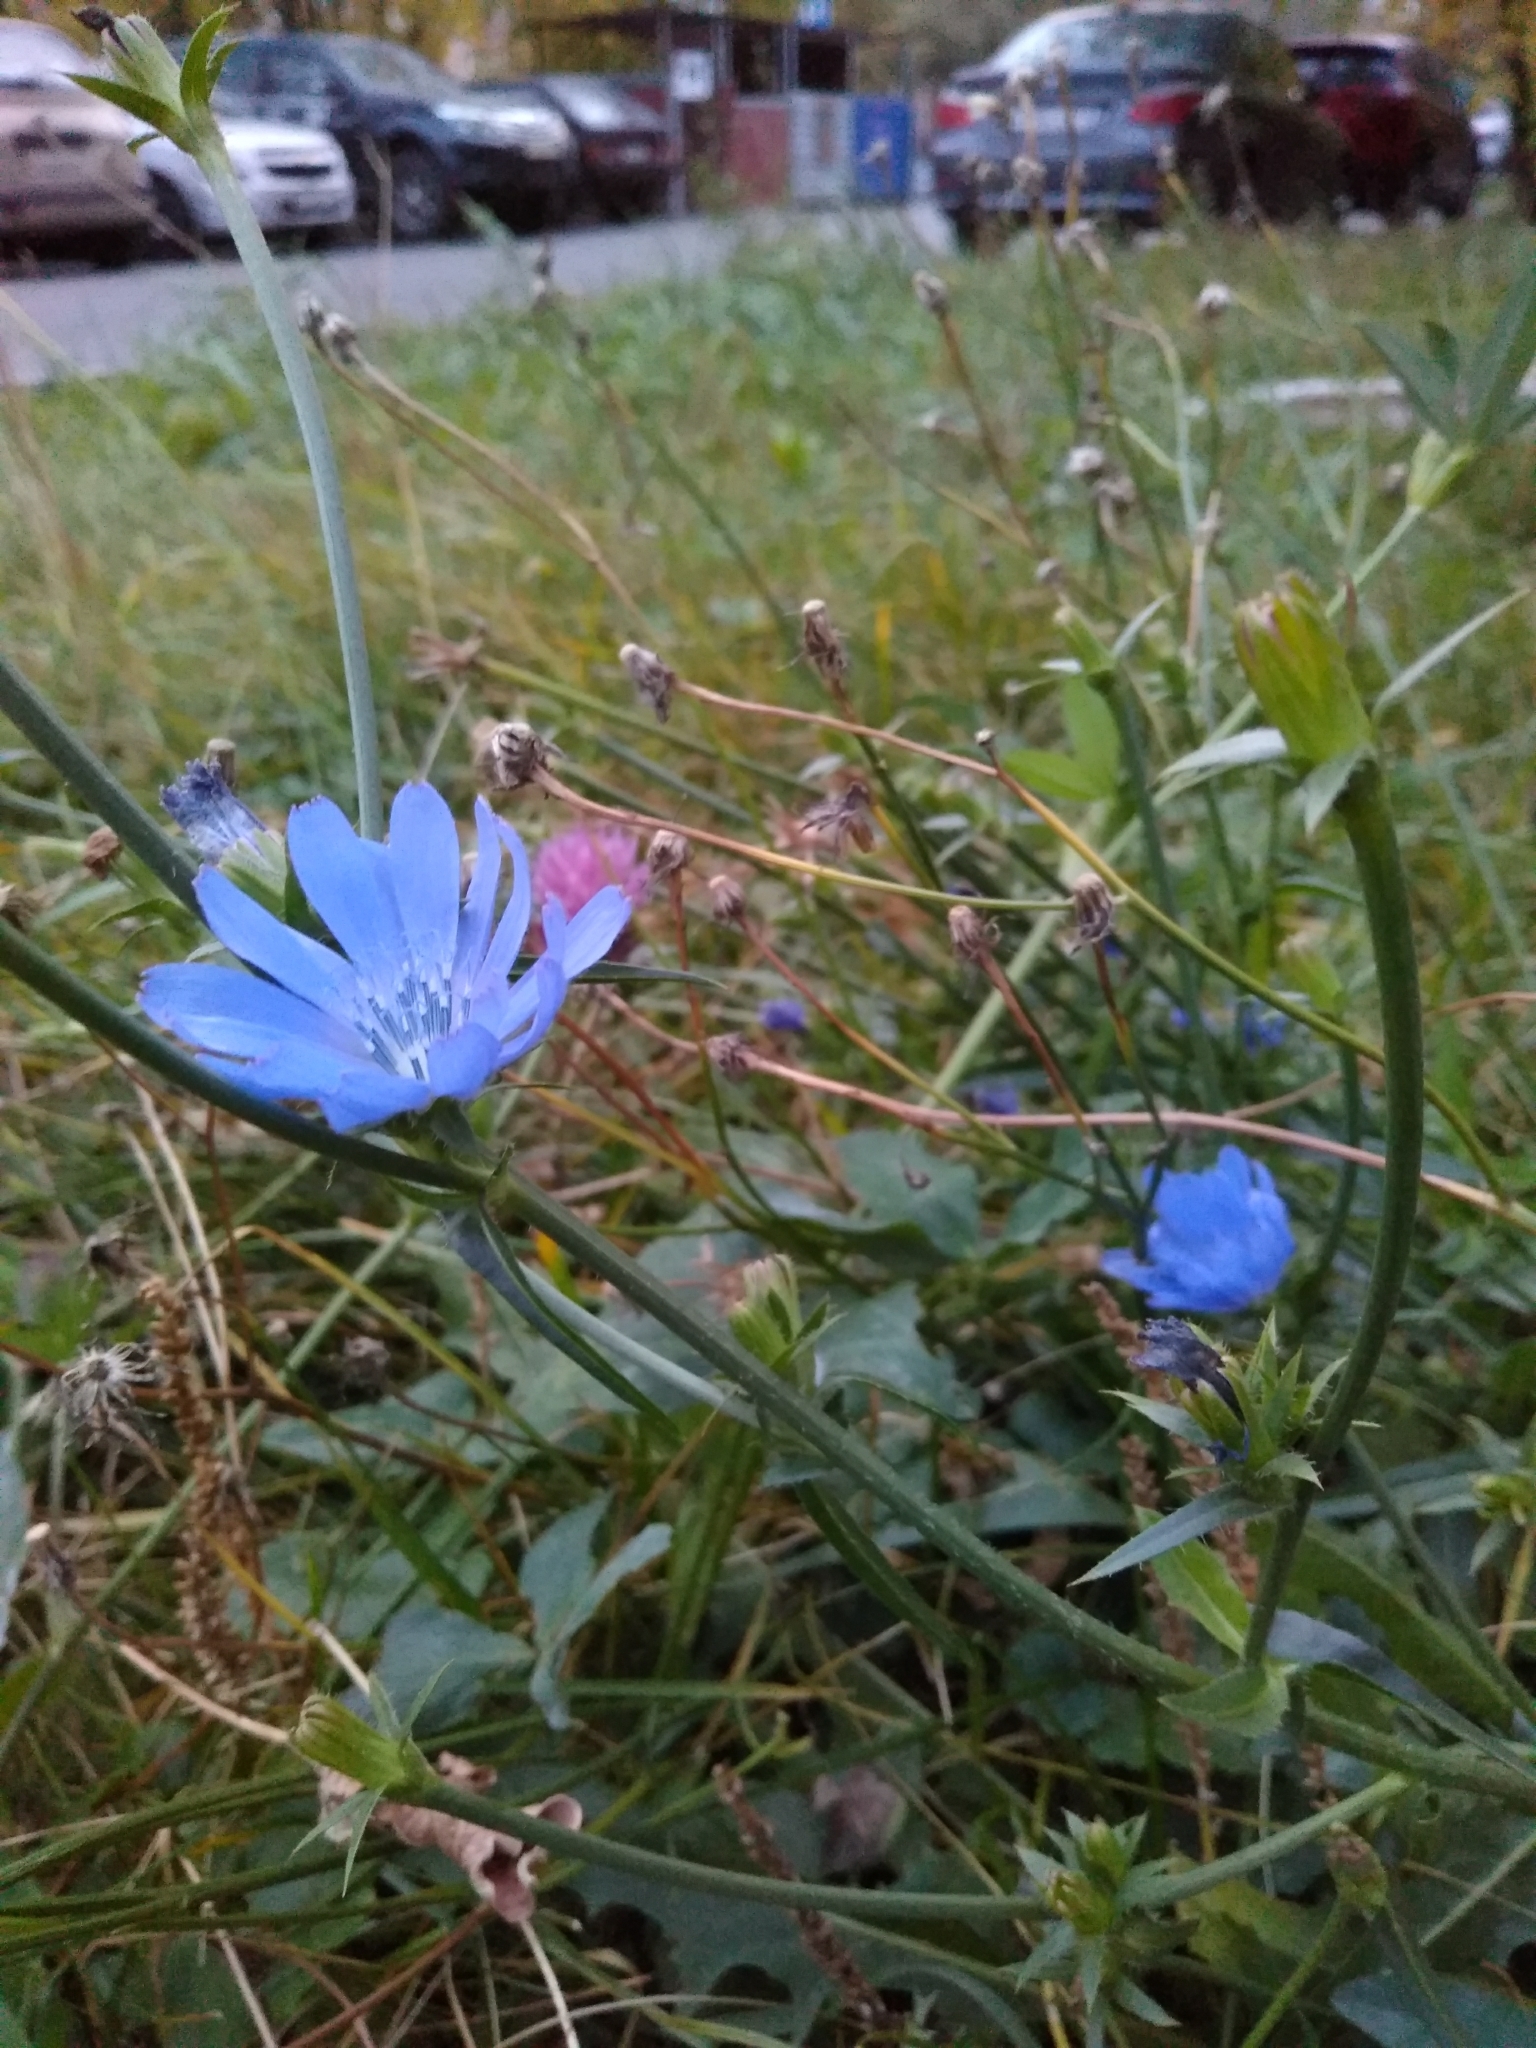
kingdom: Plantae
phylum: Tracheophyta
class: Magnoliopsida
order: Asterales
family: Asteraceae
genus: Cichorium
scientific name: Cichorium intybus
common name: Chicory
